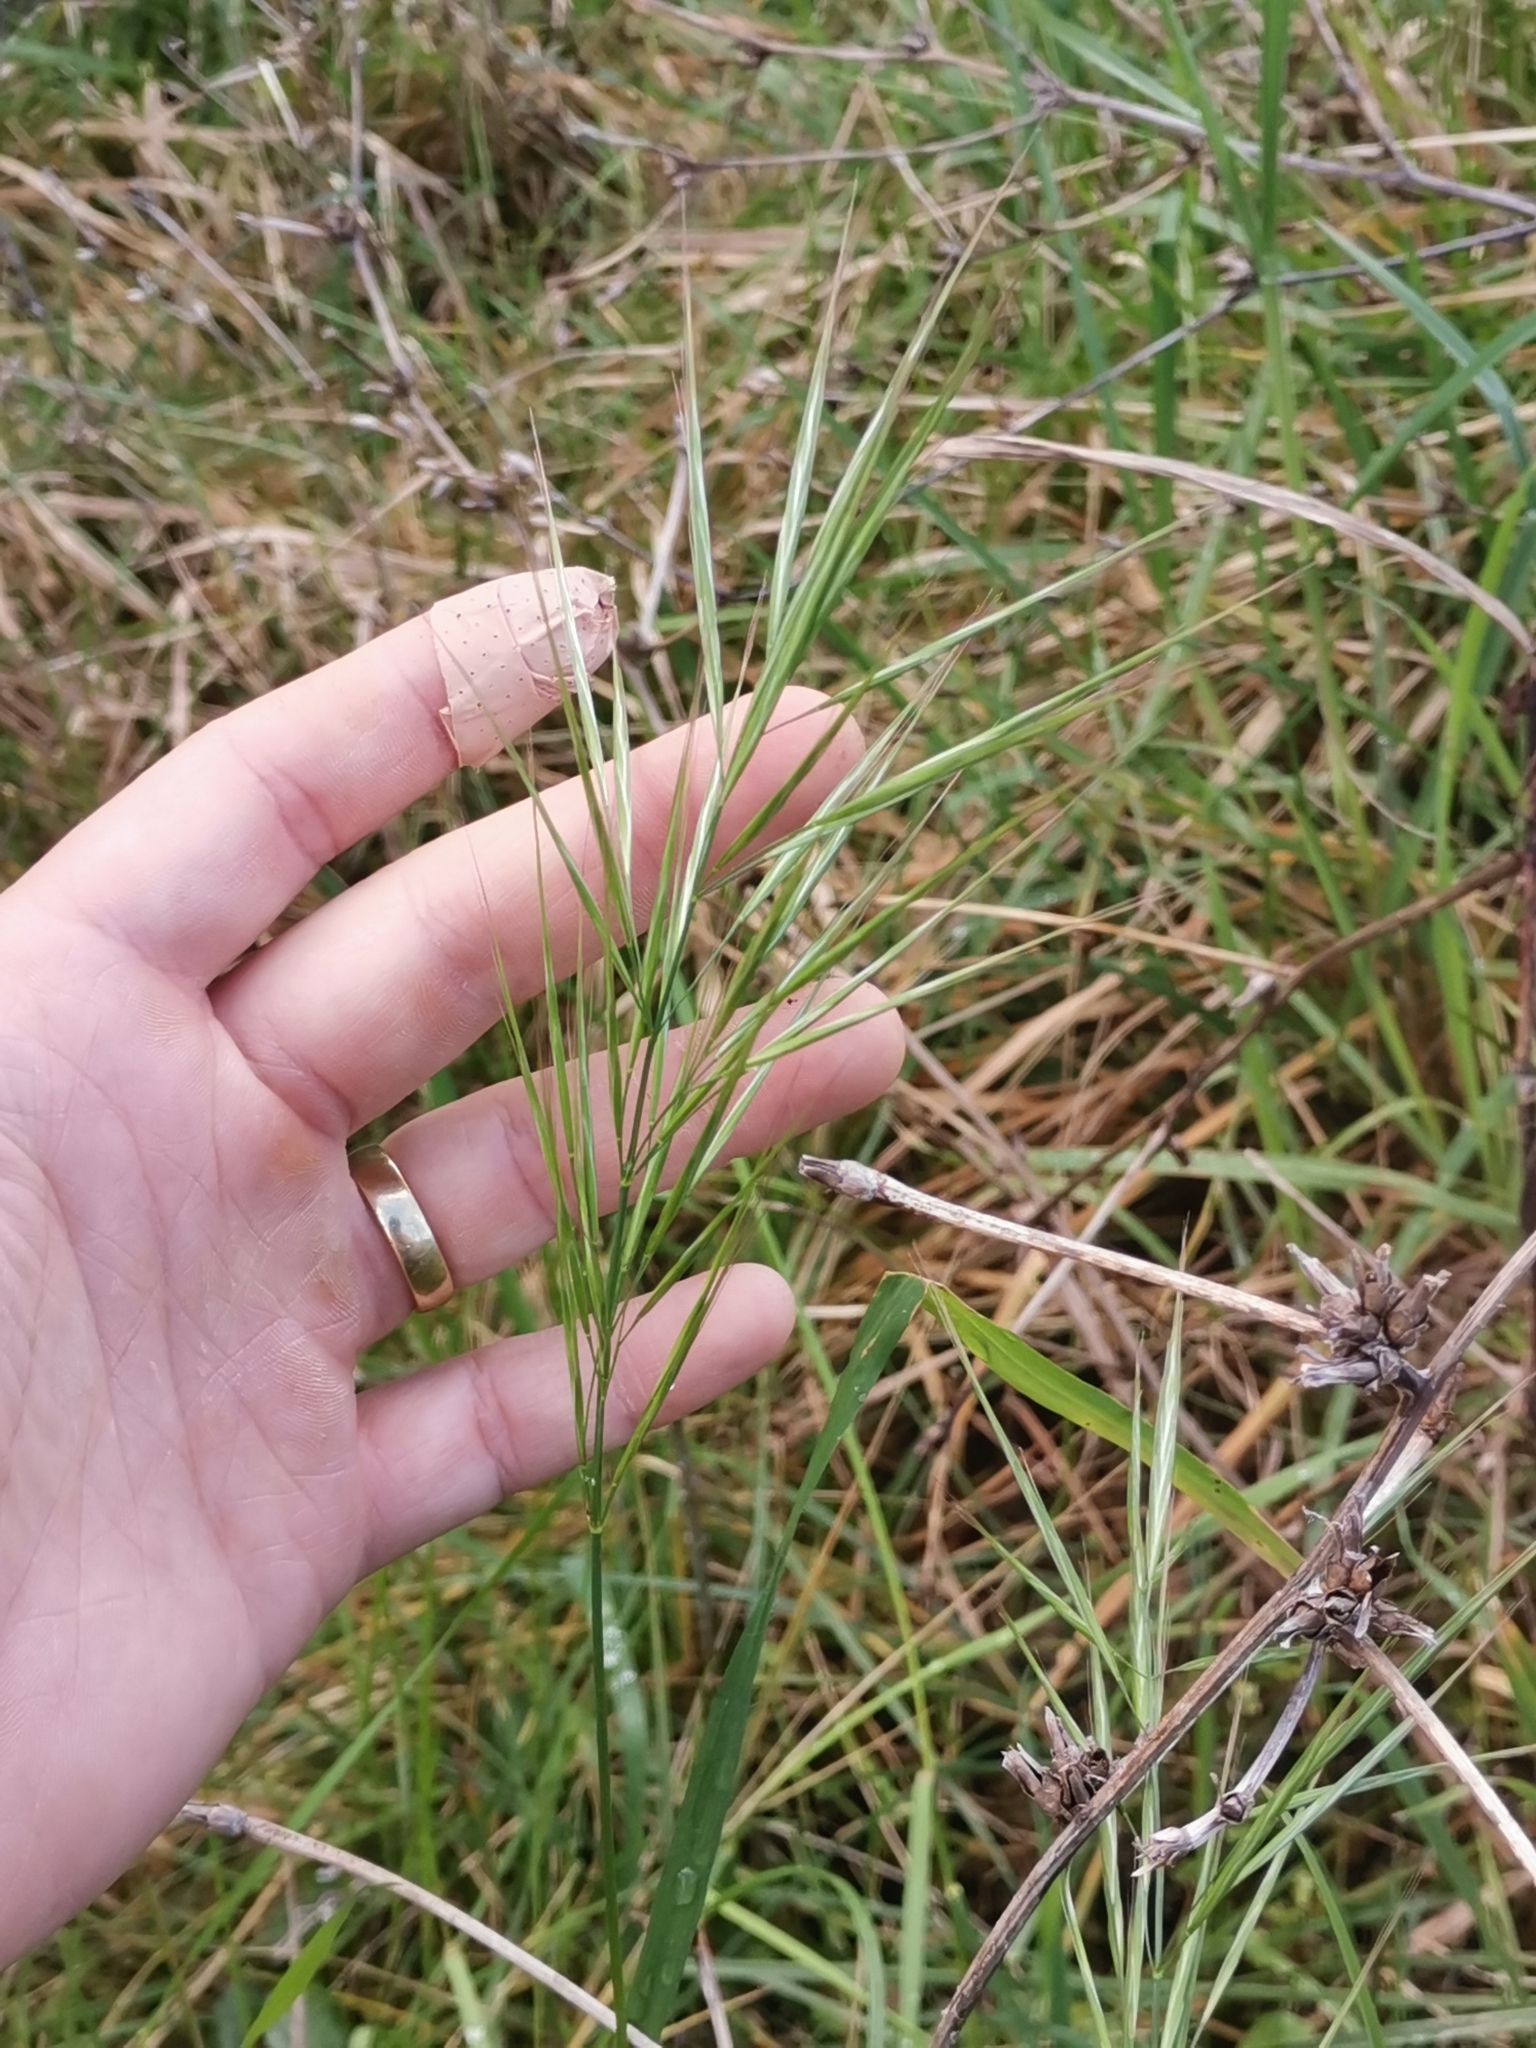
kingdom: Plantae
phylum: Tracheophyta
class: Liliopsida
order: Poales
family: Poaceae
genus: Bromus
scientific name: Bromus madritensis
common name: Compact brome
